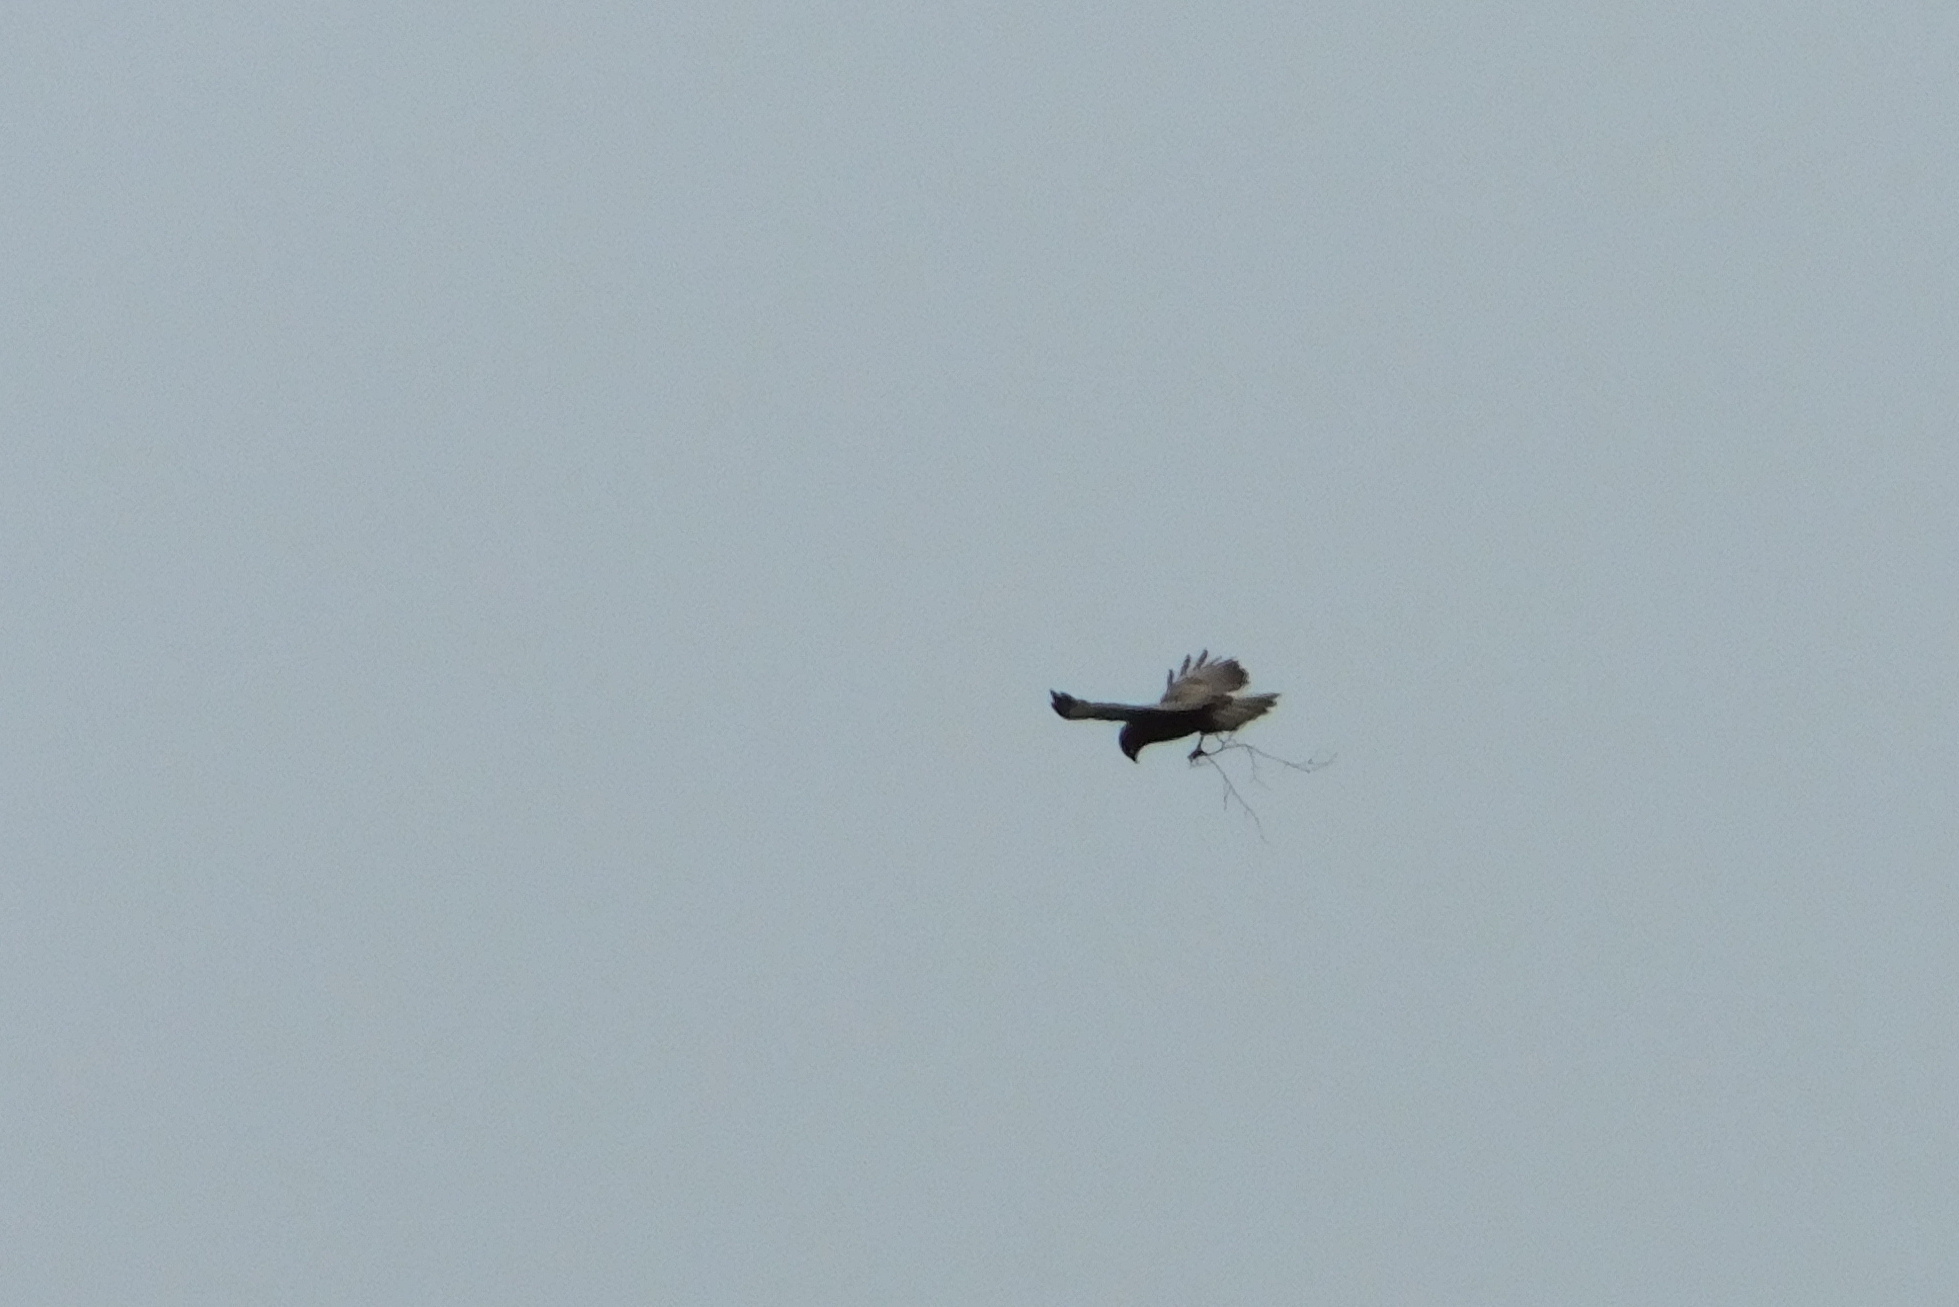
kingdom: Animalia
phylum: Chordata
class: Aves
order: Accipitriformes
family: Accipitridae
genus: Buteo
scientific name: Buteo buteo
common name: Common buzzard
